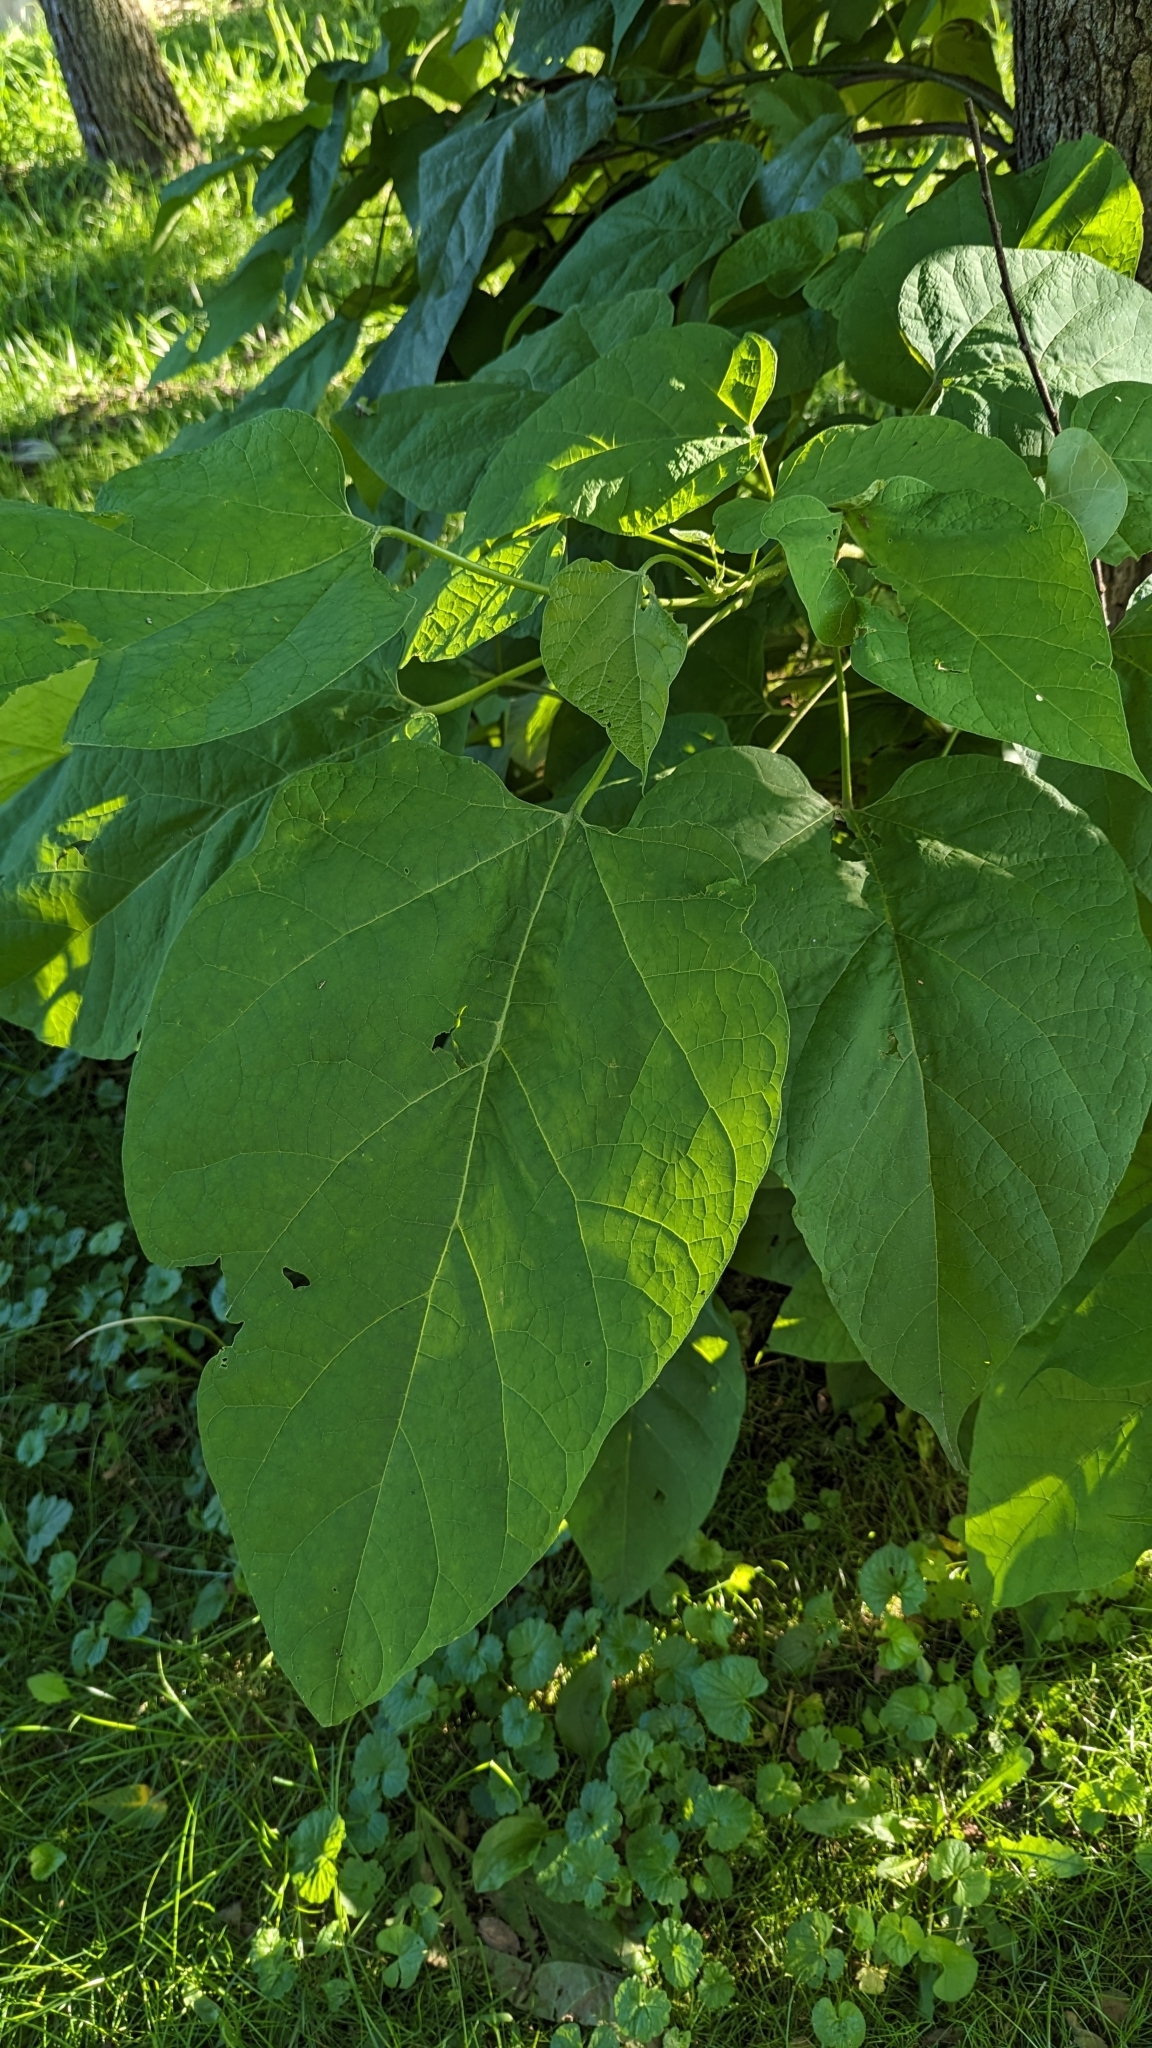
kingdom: Plantae
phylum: Tracheophyta
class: Magnoliopsida
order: Lamiales
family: Bignoniaceae
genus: Catalpa
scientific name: Catalpa speciosa
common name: Northern catalpa
